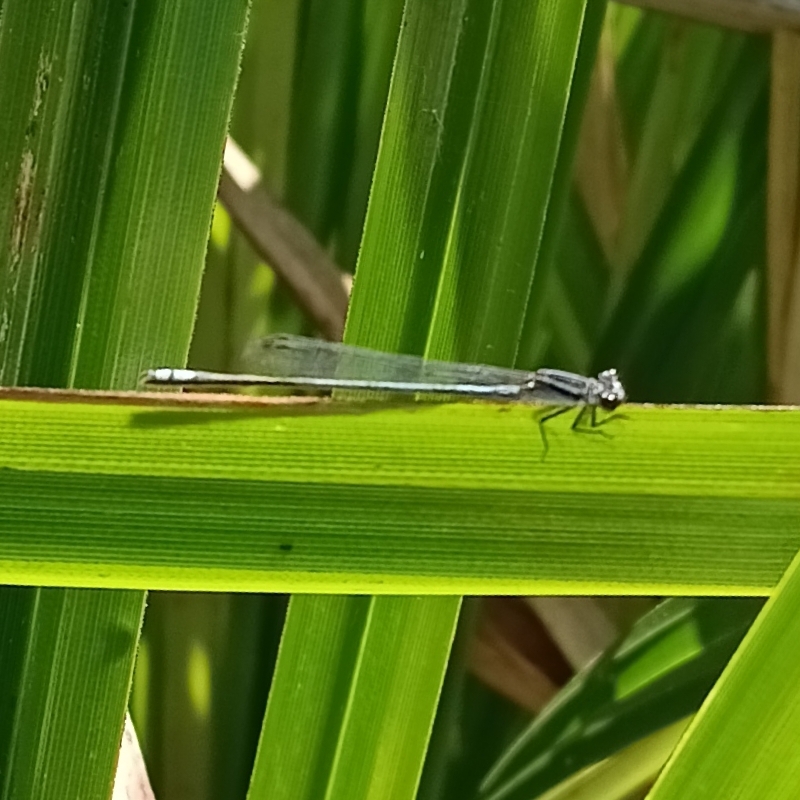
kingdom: Animalia
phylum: Arthropoda
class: Insecta
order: Odonata
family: Coenagrionidae
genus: Pseudagrion
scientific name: Pseudagrion kersteni
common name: Powder-faced sprite
